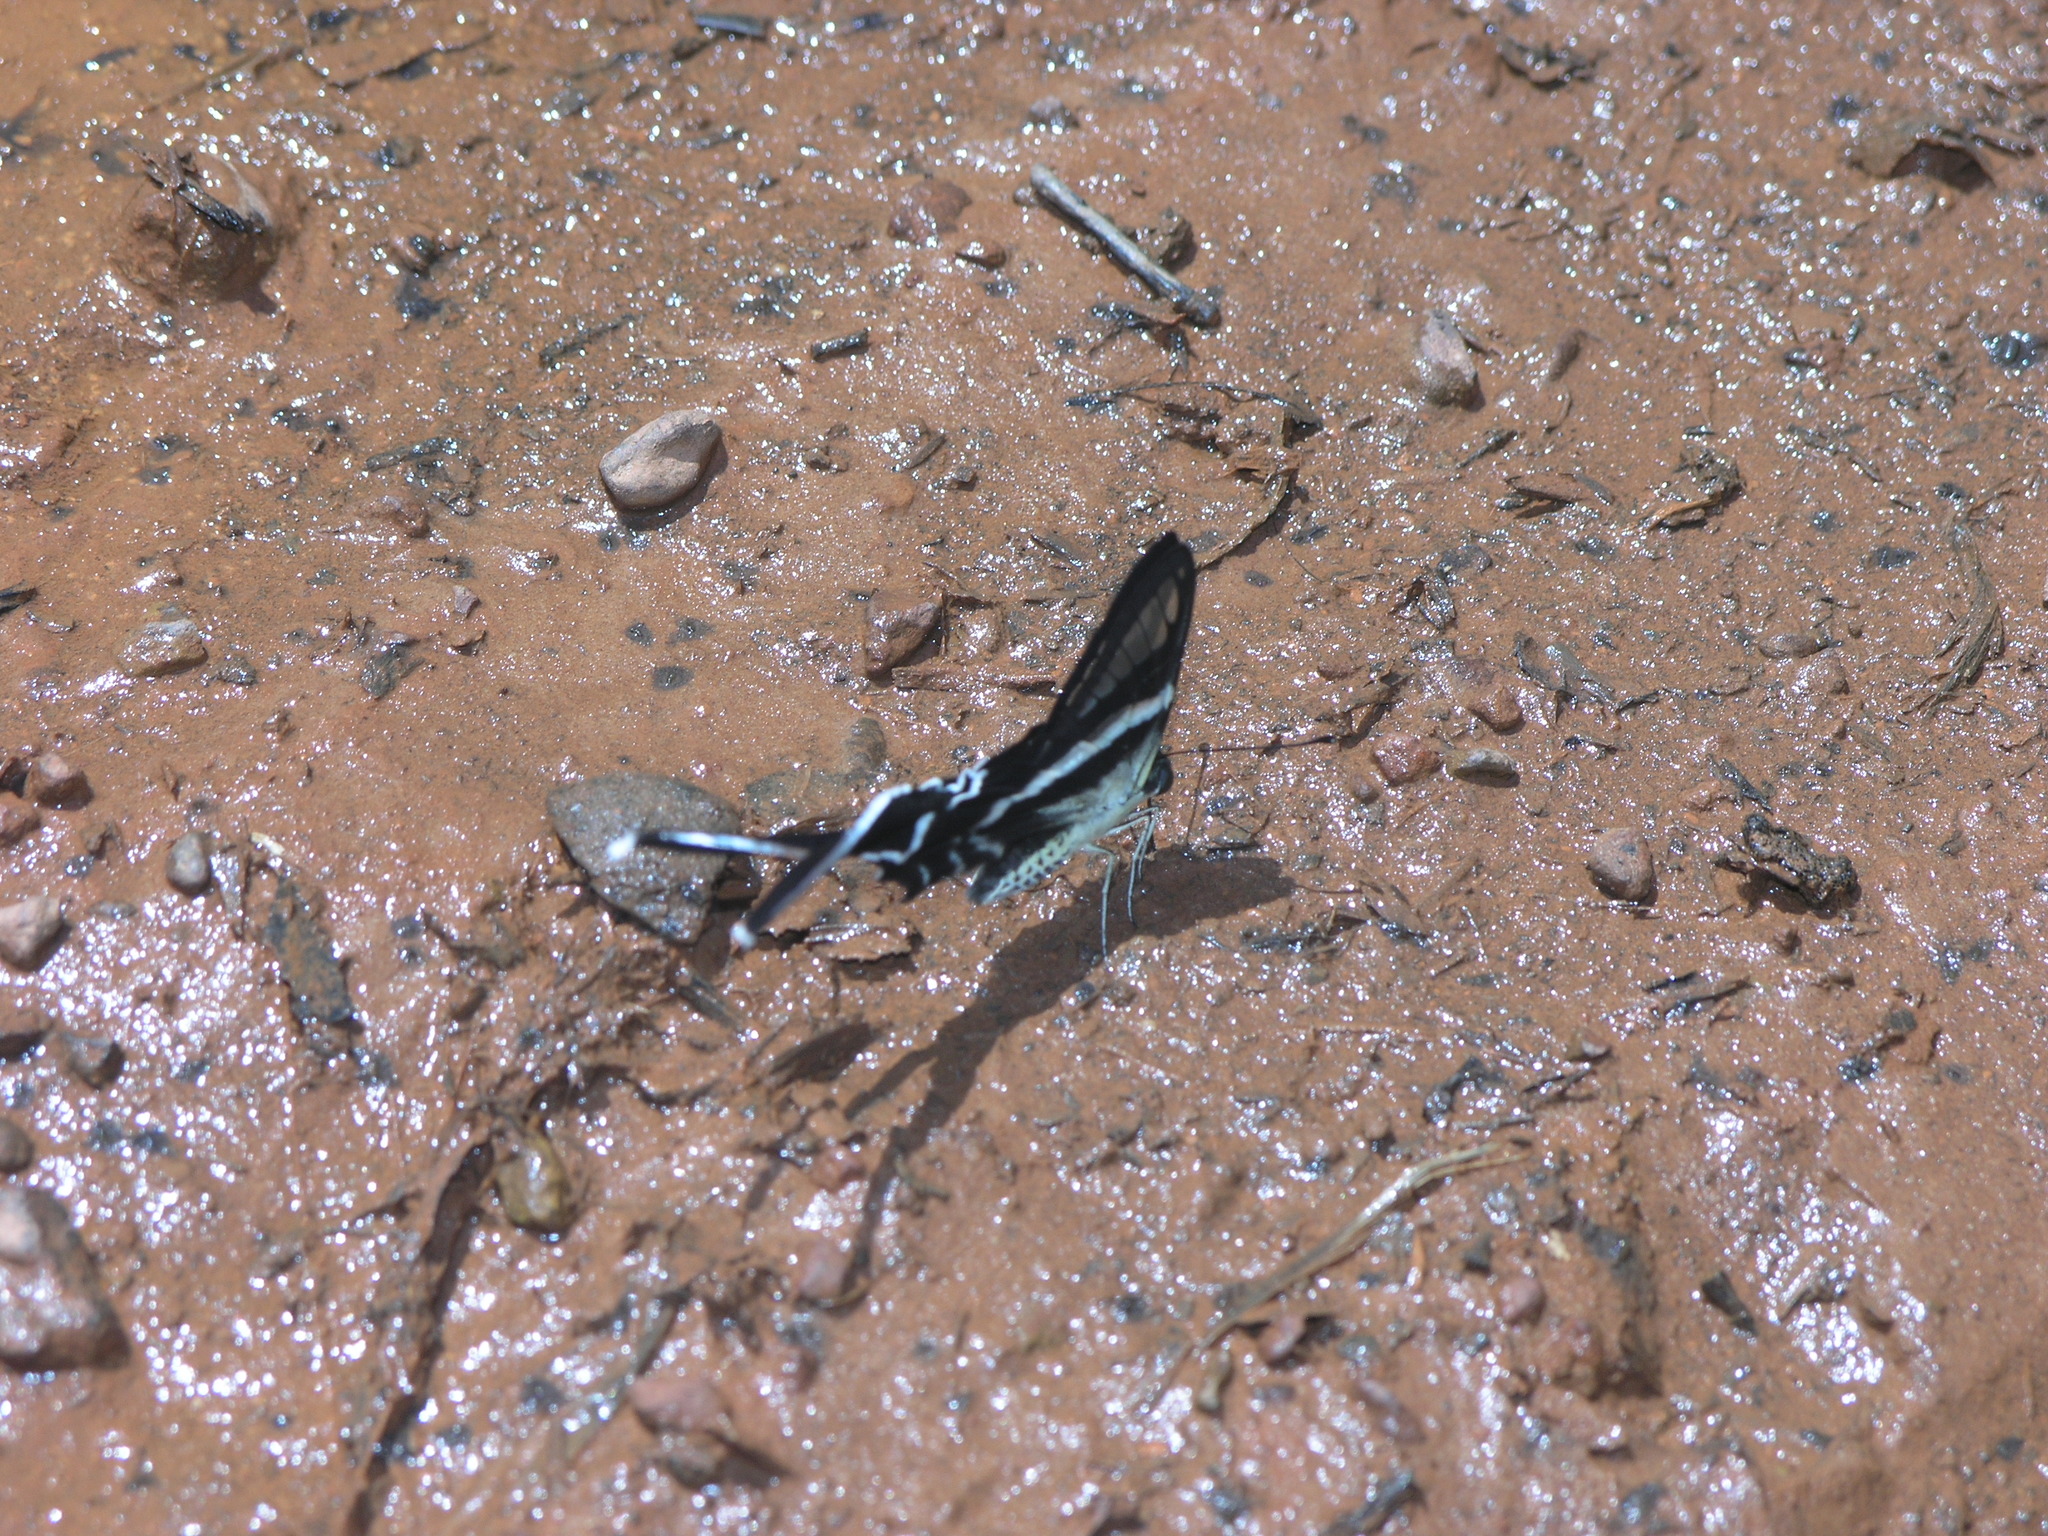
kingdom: Animalia
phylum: Arthropoda
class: Insecta
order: Lepidoptera
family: Papilionidae
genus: Lamproptera
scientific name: Lamproptera curius
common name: White dragontail
